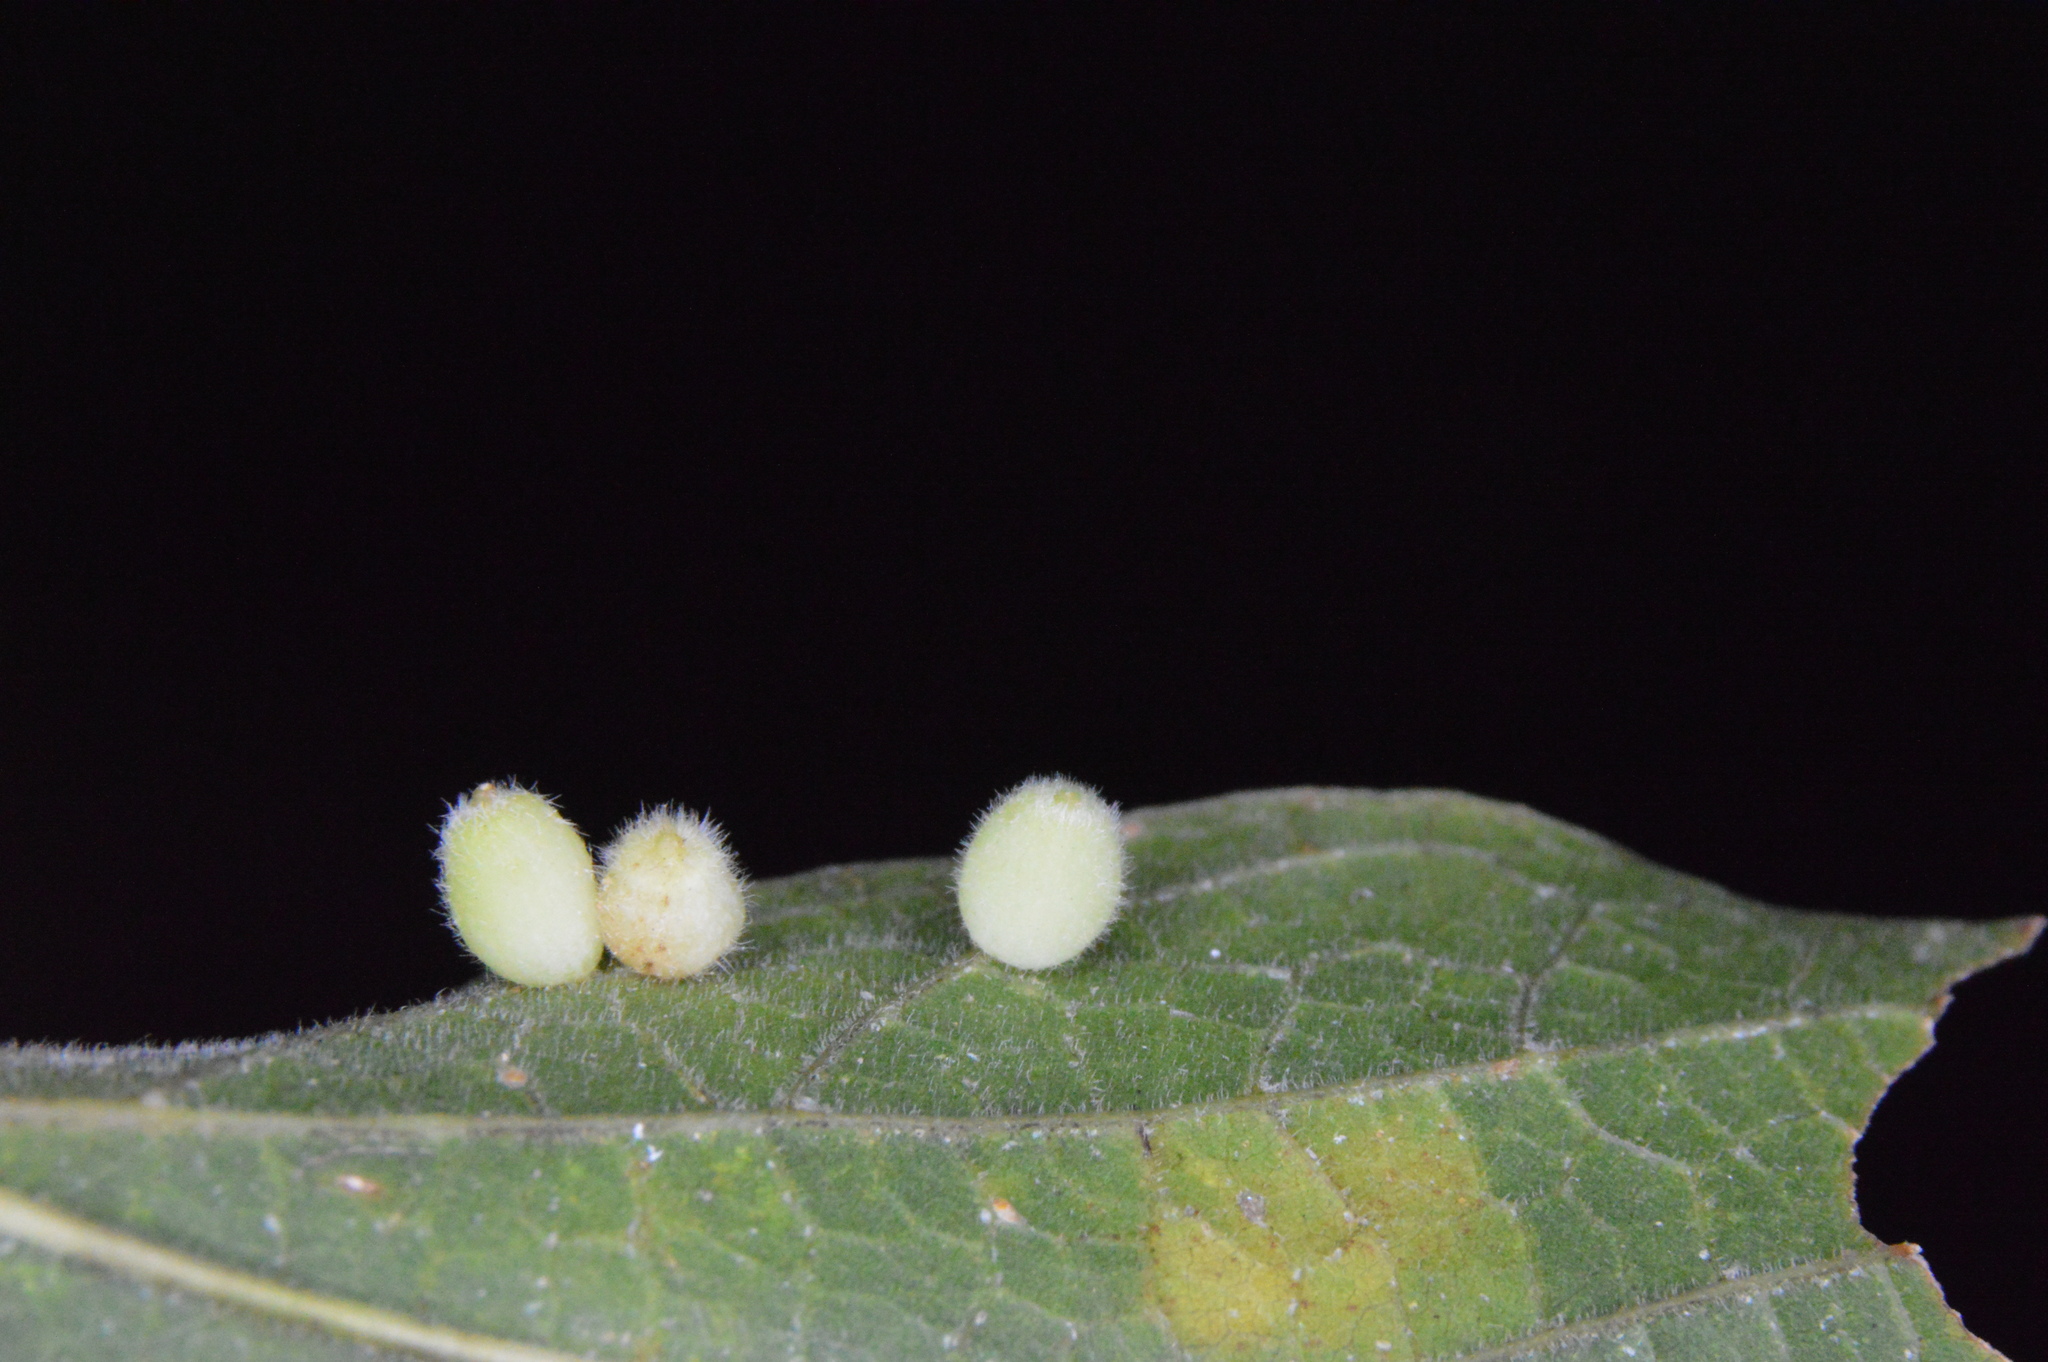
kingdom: Animalia
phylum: Arthropoda
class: Insecta
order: Diptera
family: Cecidomyiidae
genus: Celticecis
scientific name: Celticecis globosa
